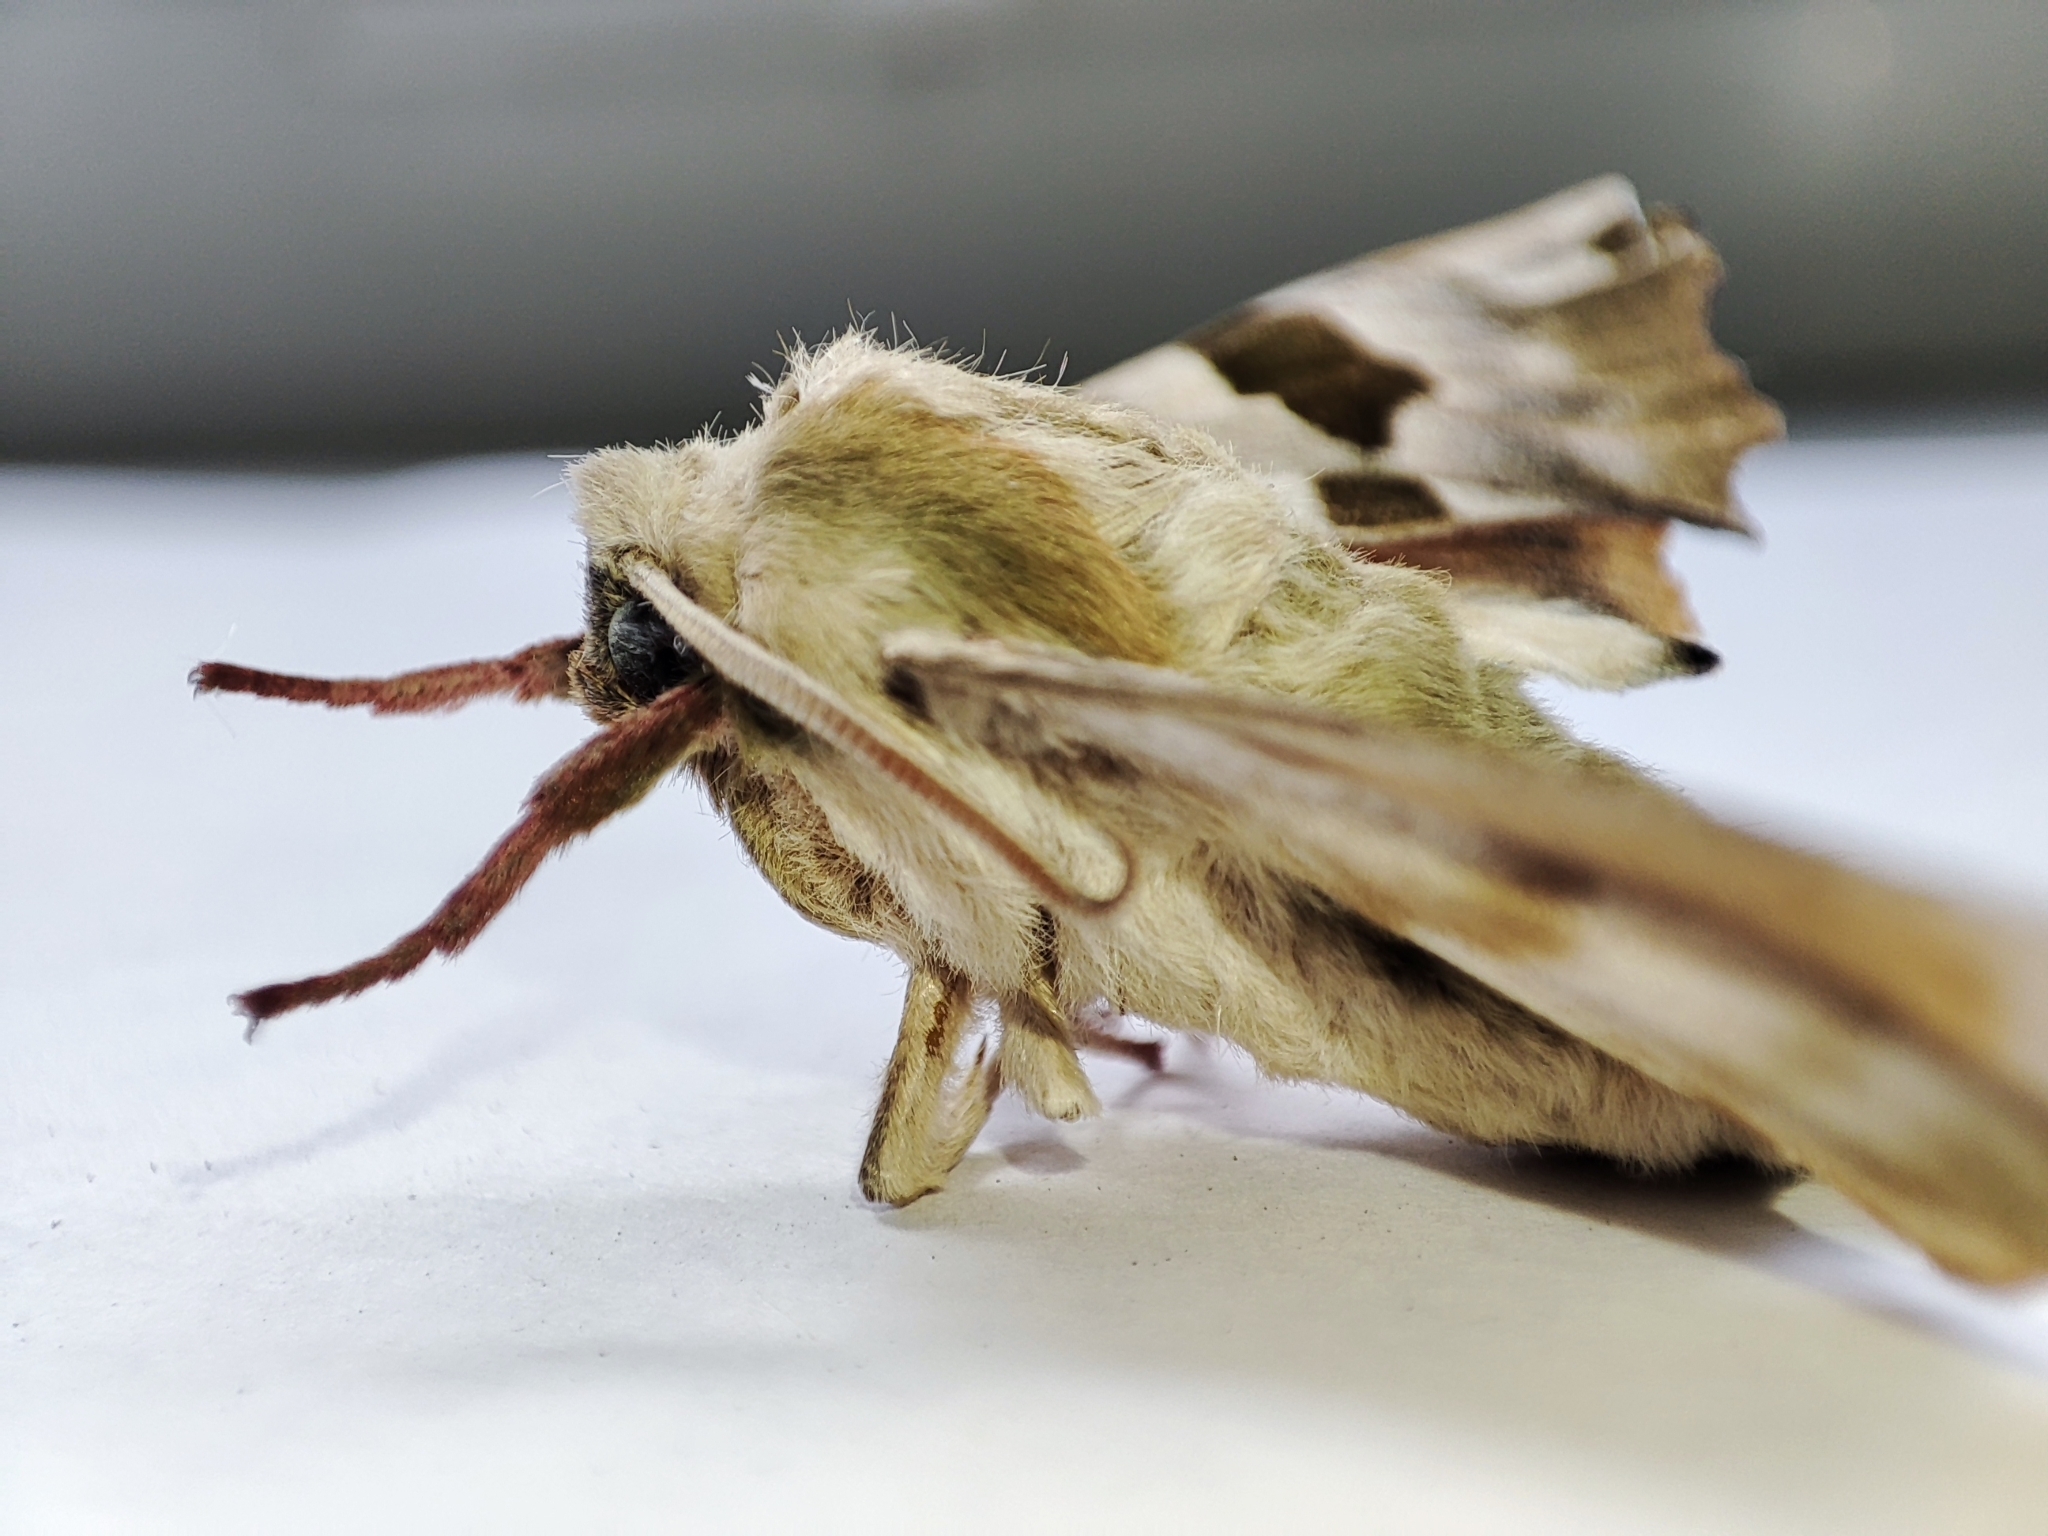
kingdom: Animalia
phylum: Arthropoda
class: Insecta
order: Lepidoptera
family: Sphingidae
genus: Mimas
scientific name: Mimas tiliae
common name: Lime hawk-moth
